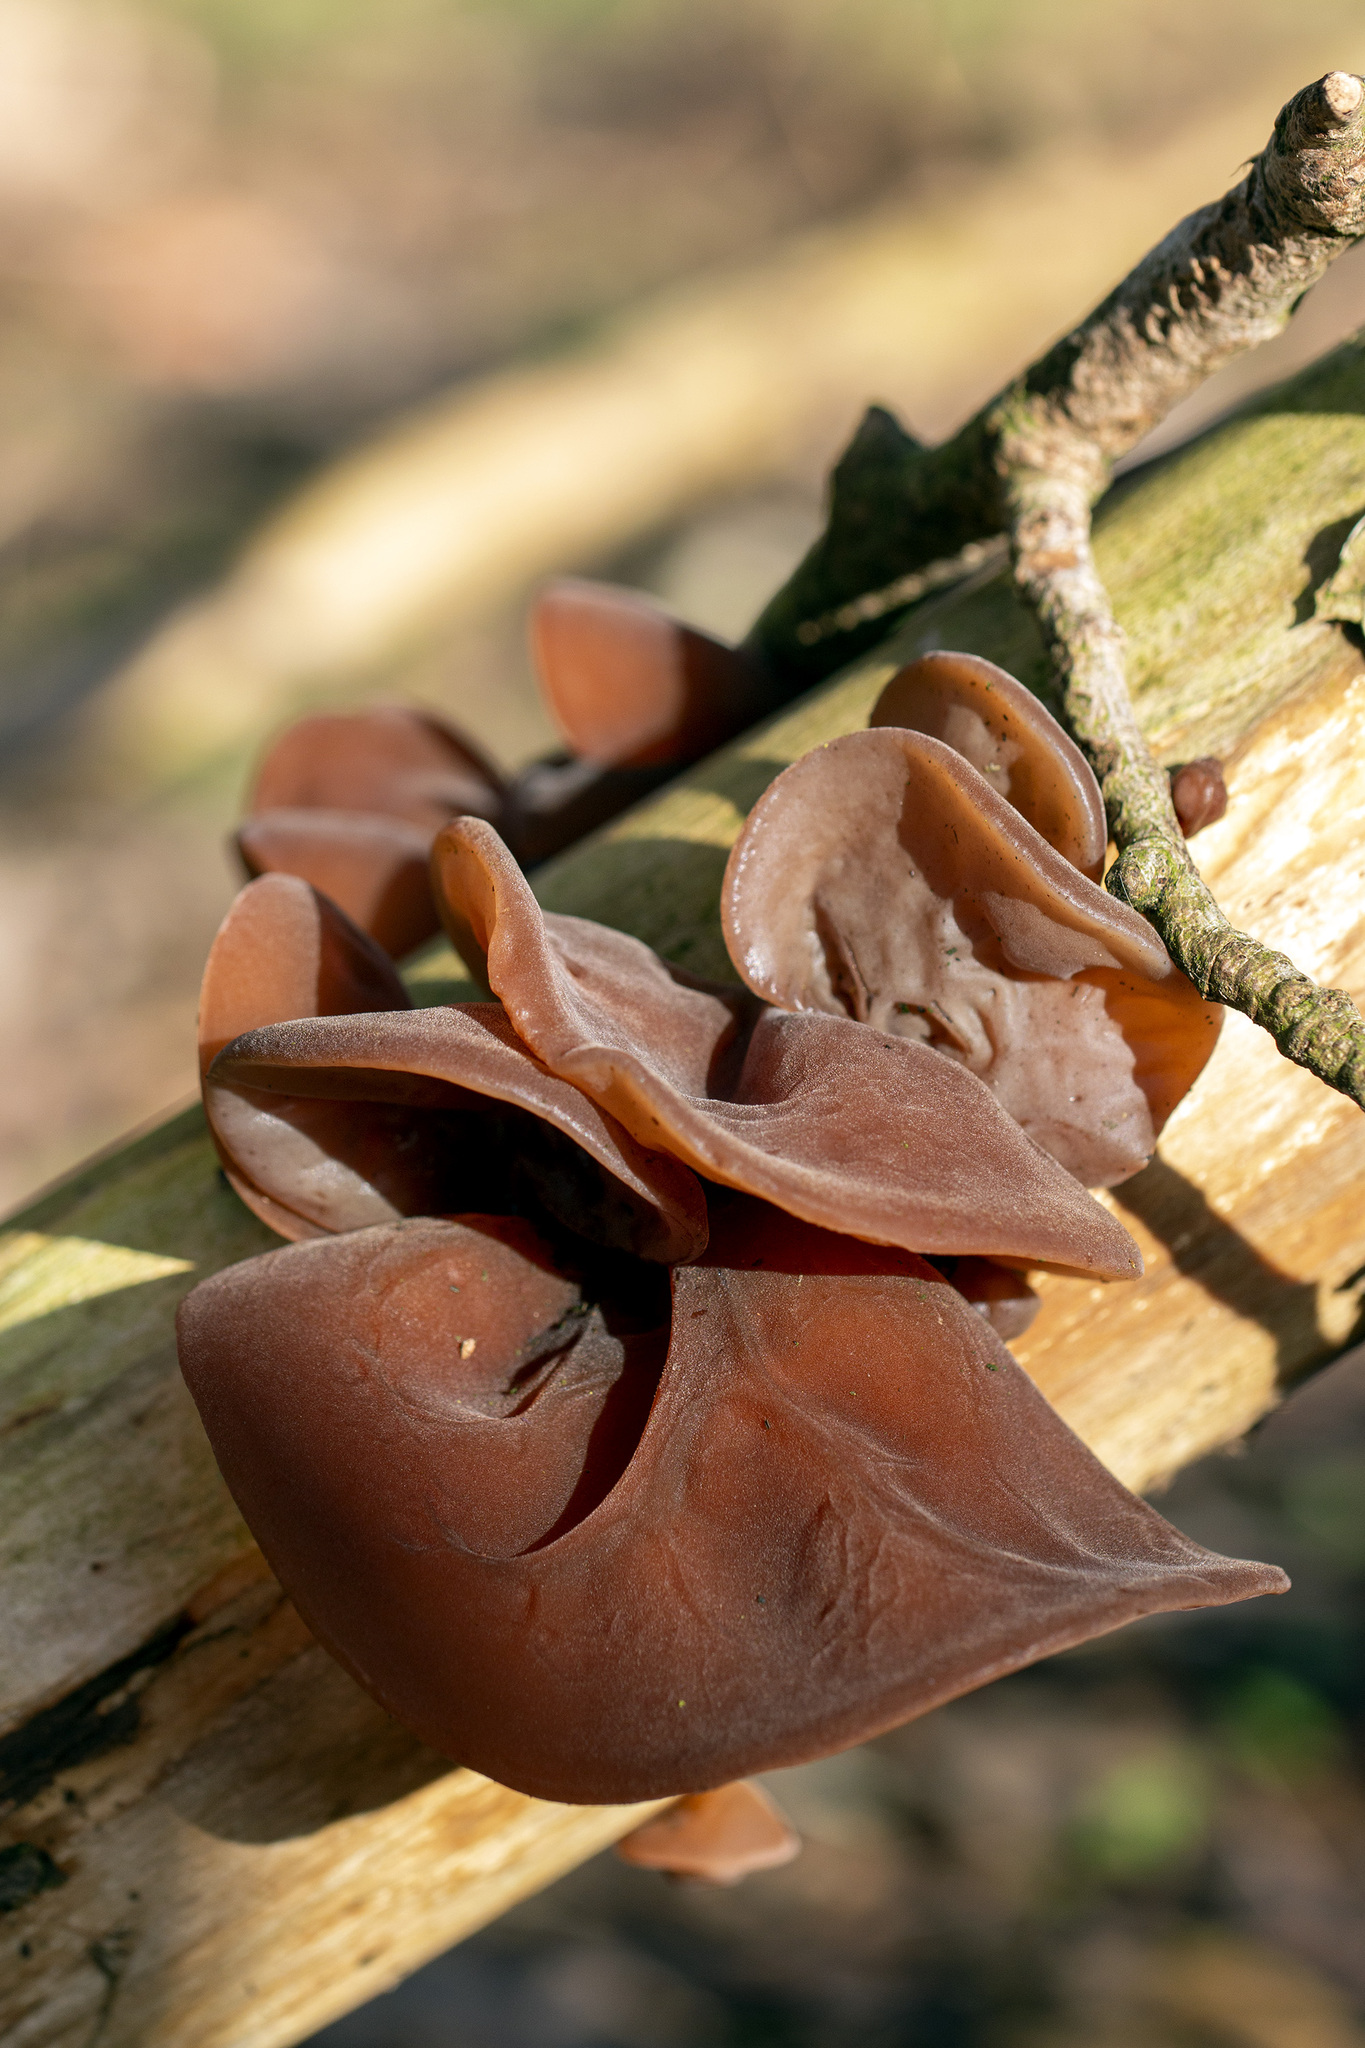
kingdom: Fungi
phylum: Basidiomycota
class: Agaricomycetes
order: Auriculariales
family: Auriculariaceae
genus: Auricularia
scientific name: Auricularia auricula-judae
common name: Jelly ear
